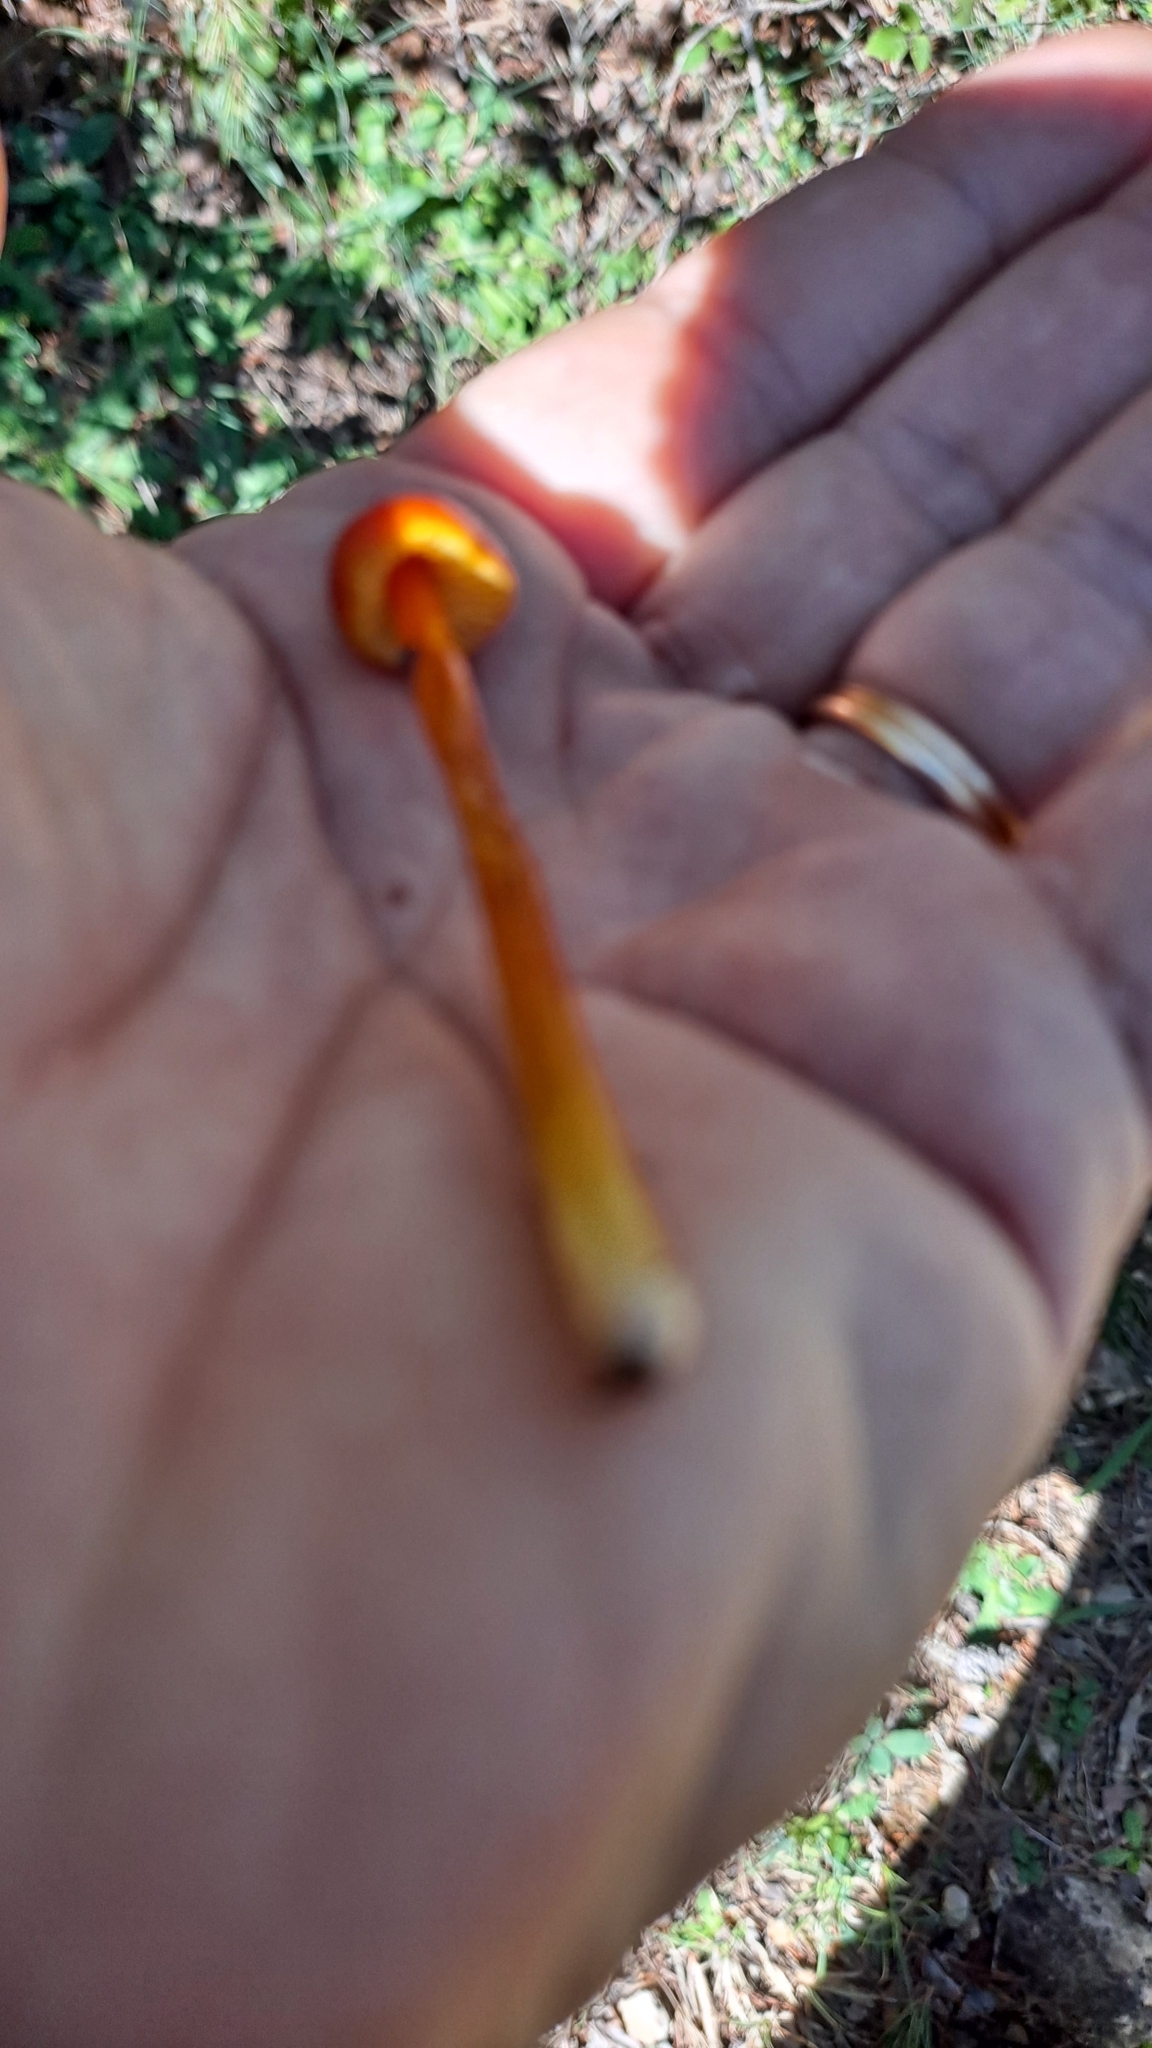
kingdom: Fungi
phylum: Basidiomycota
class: Agaricomycetes
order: Agaricales
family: Hygrophoraceae
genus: Hygrocybe
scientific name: Hygrocybe conica
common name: Blackening wax-cap
